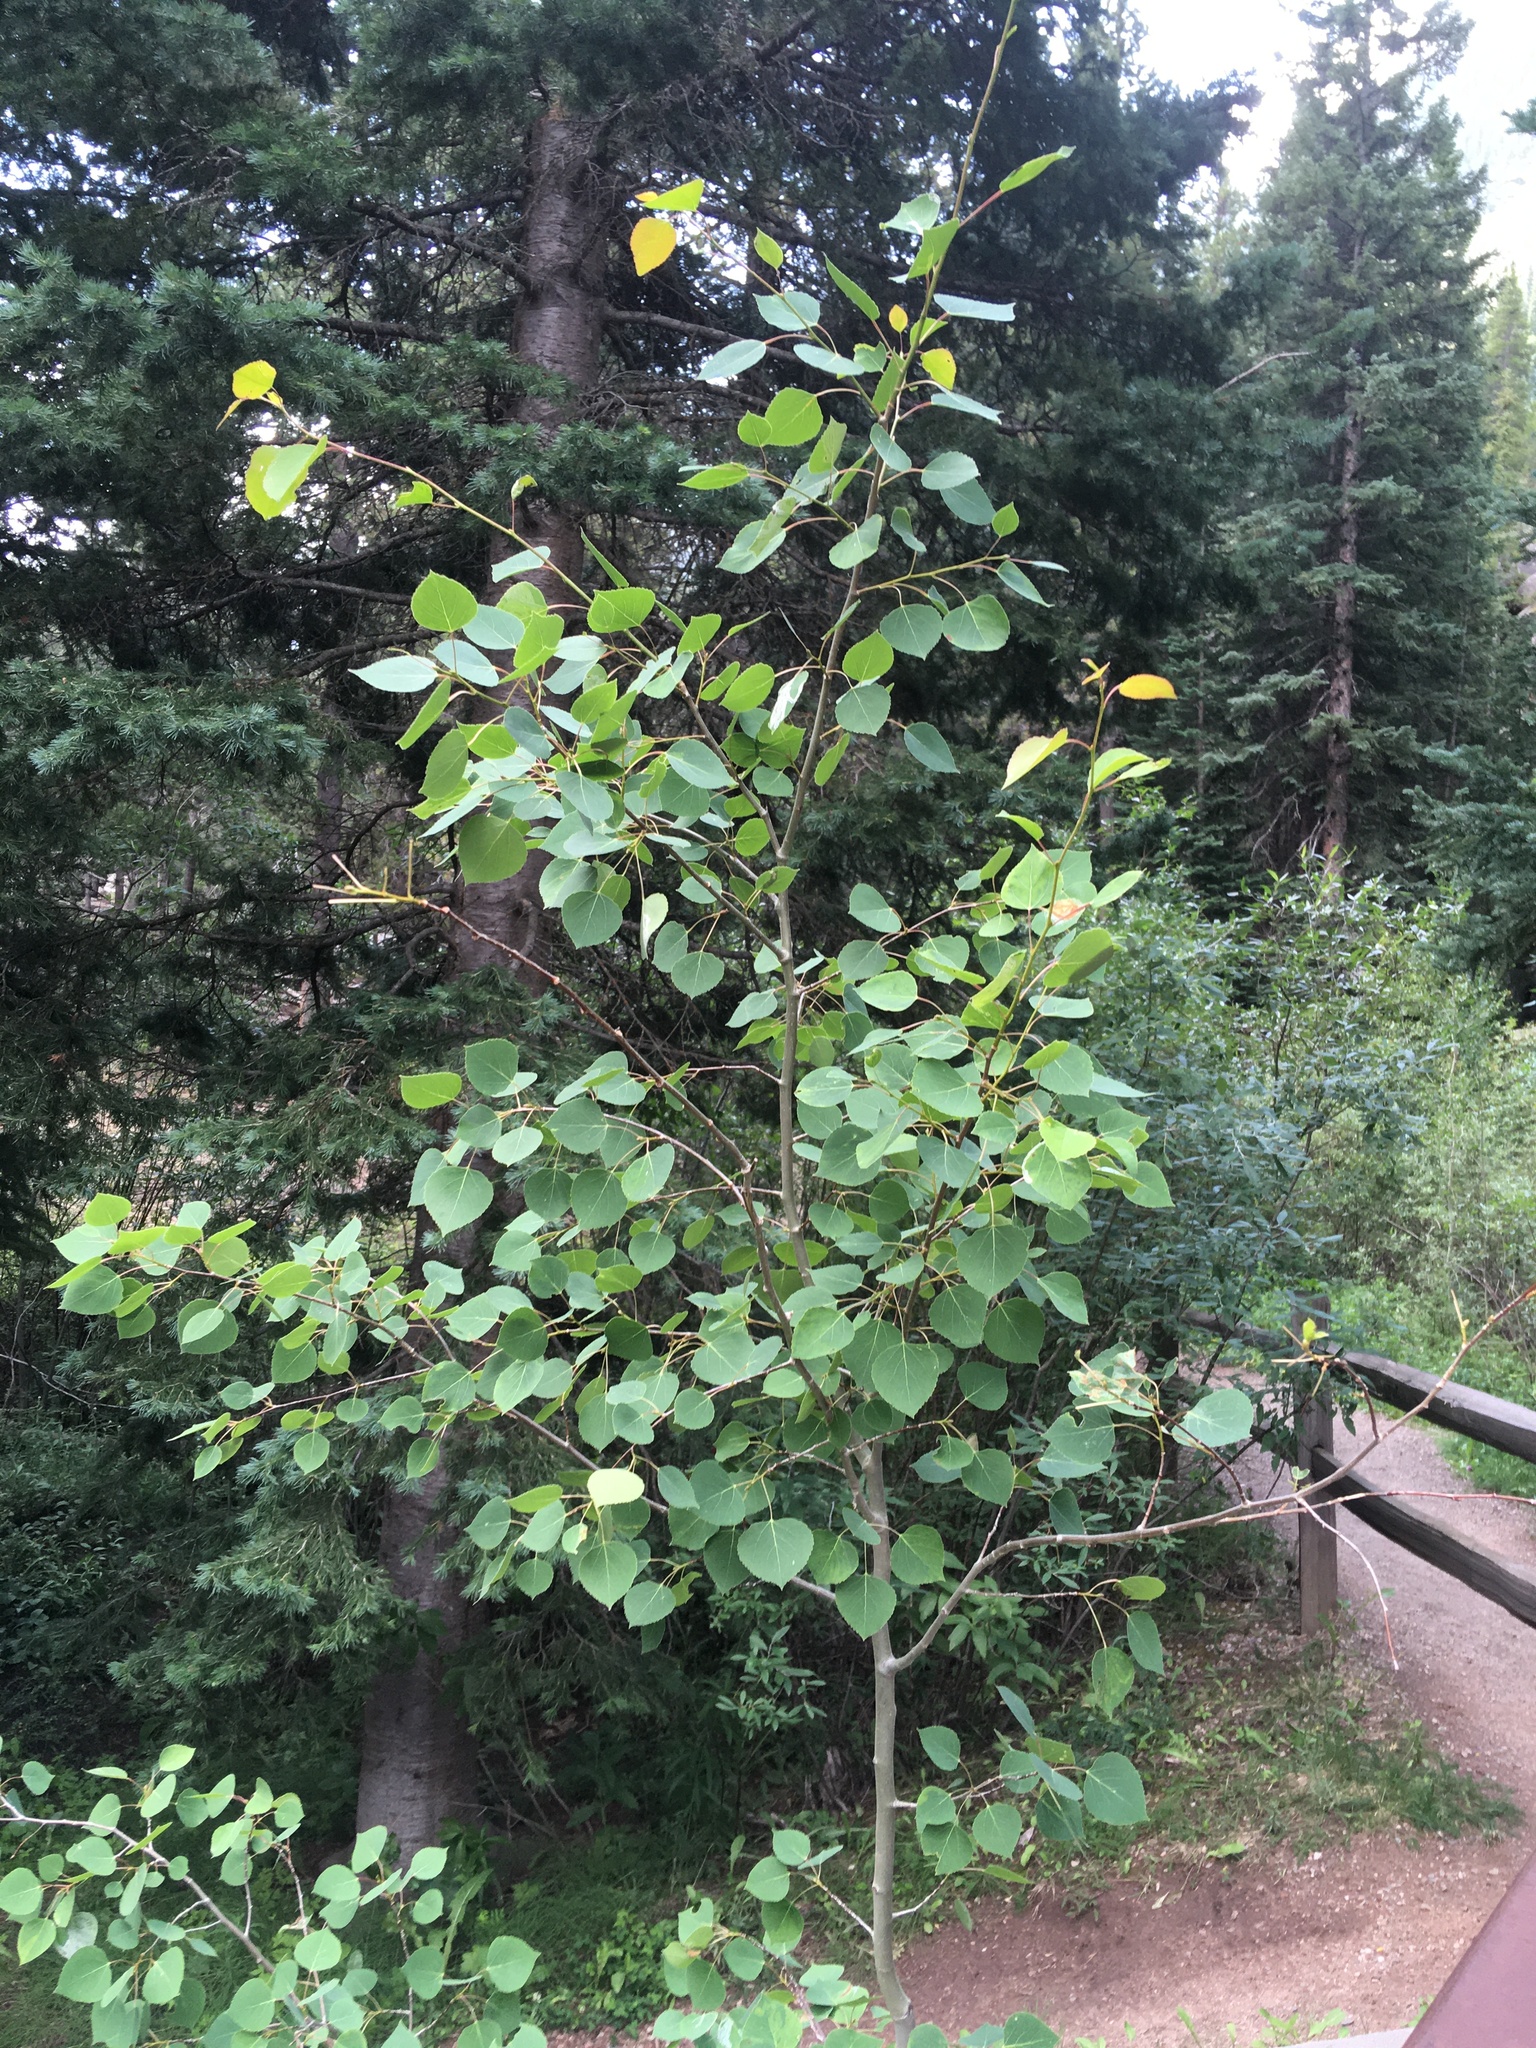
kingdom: Plantae
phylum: Tracheophyta
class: Magnoliopsida
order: Malpighiales
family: Salicaceae
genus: Populus
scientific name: Populus tremuloides
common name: Quaking aspen
